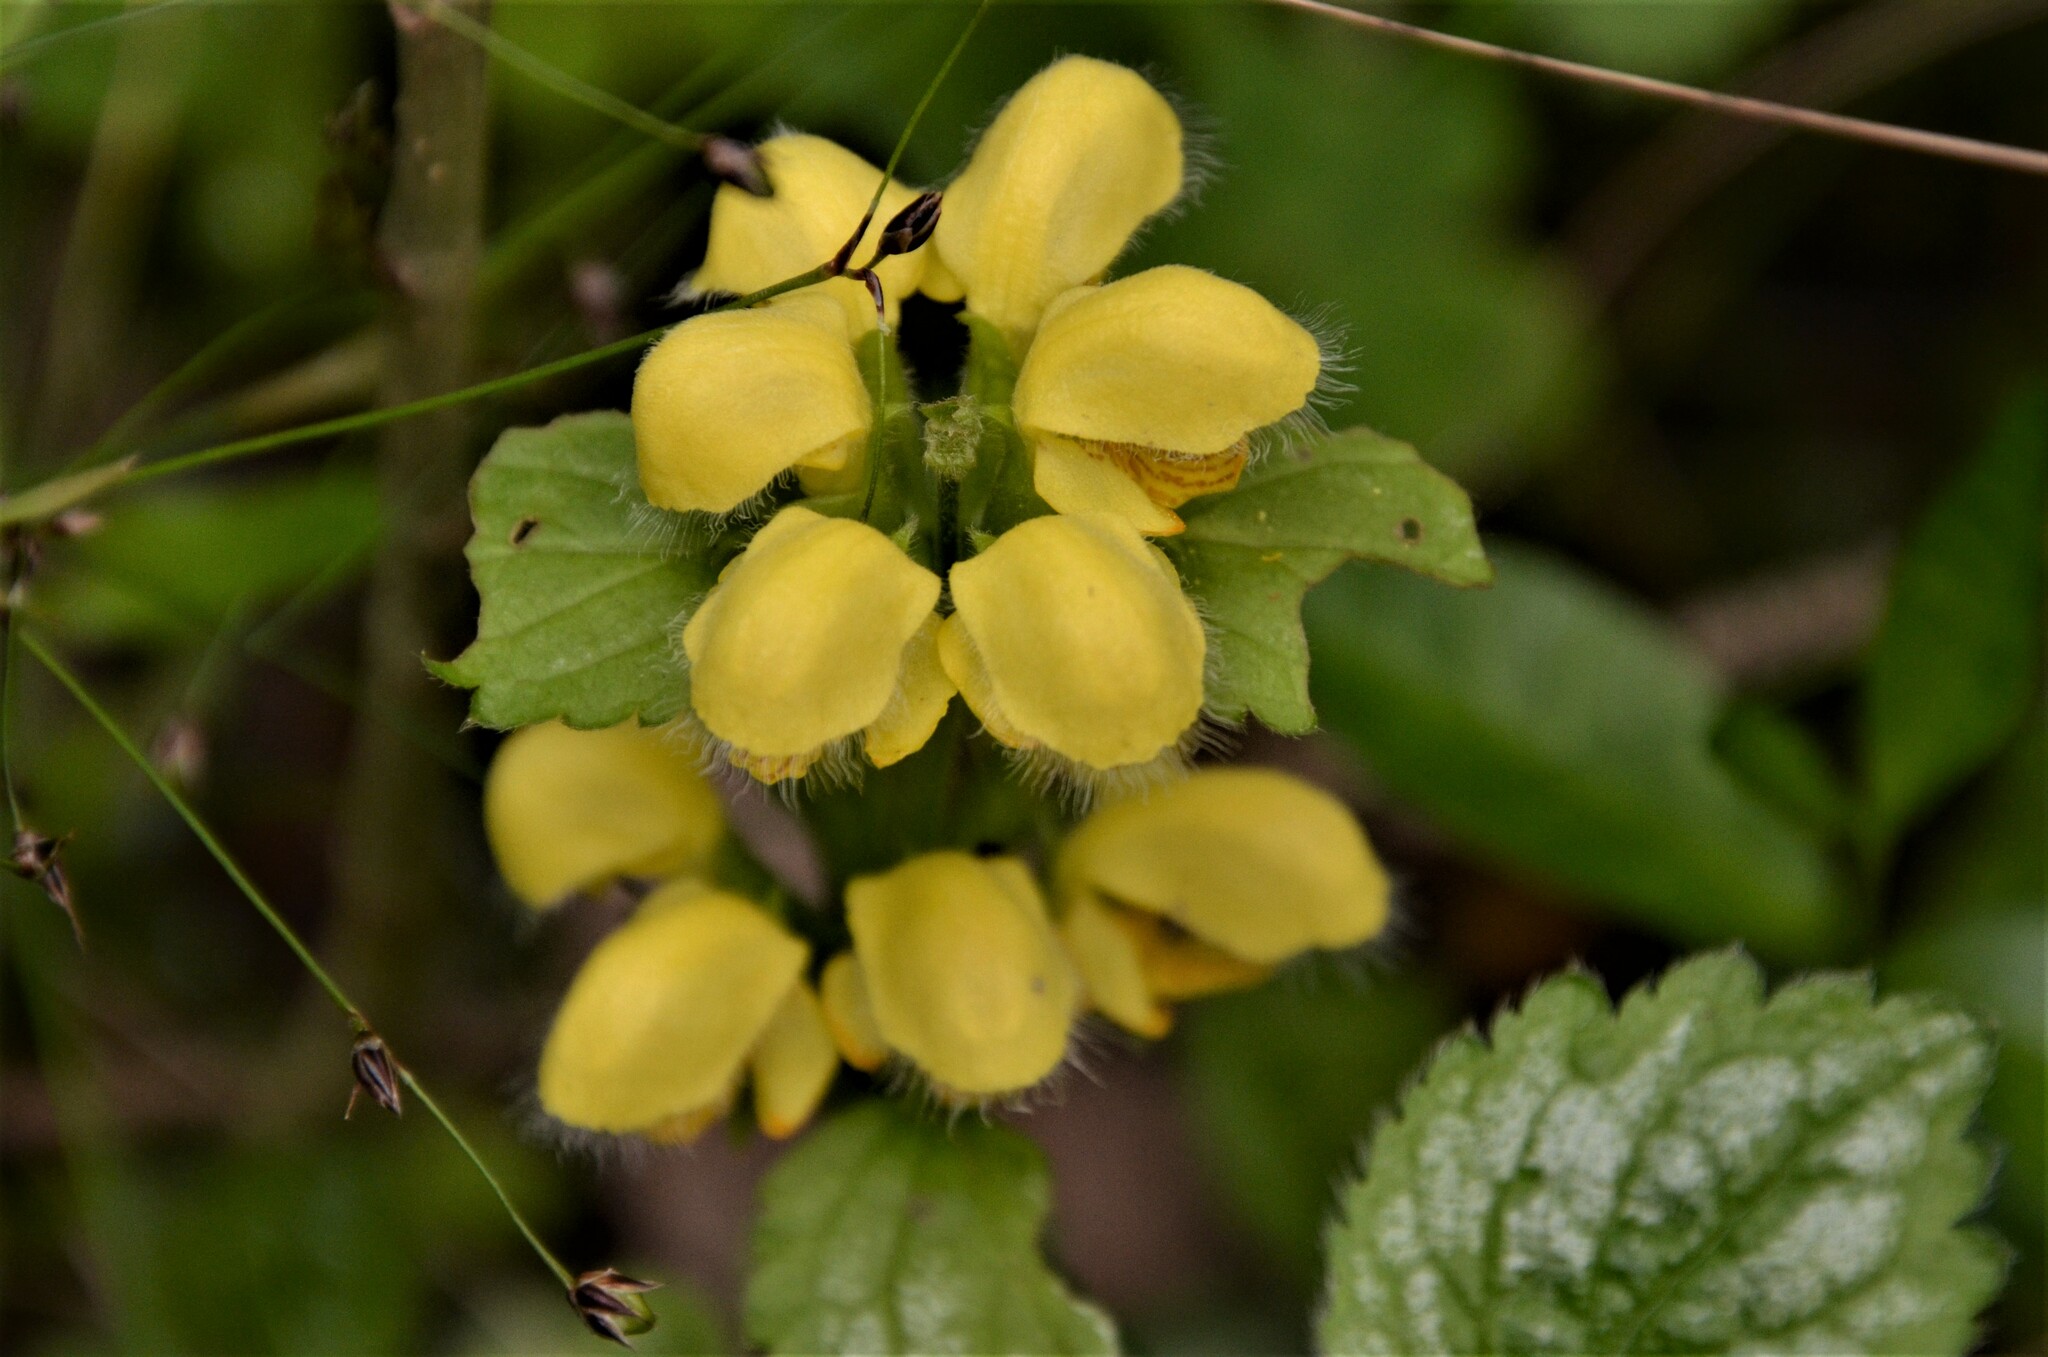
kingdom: Plantae
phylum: Tracheophyta
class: Magnoliopsida
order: Lamiales
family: Lamiaceae
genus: Lamium
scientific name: Lamium galeobdolon
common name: Yellow archangel
